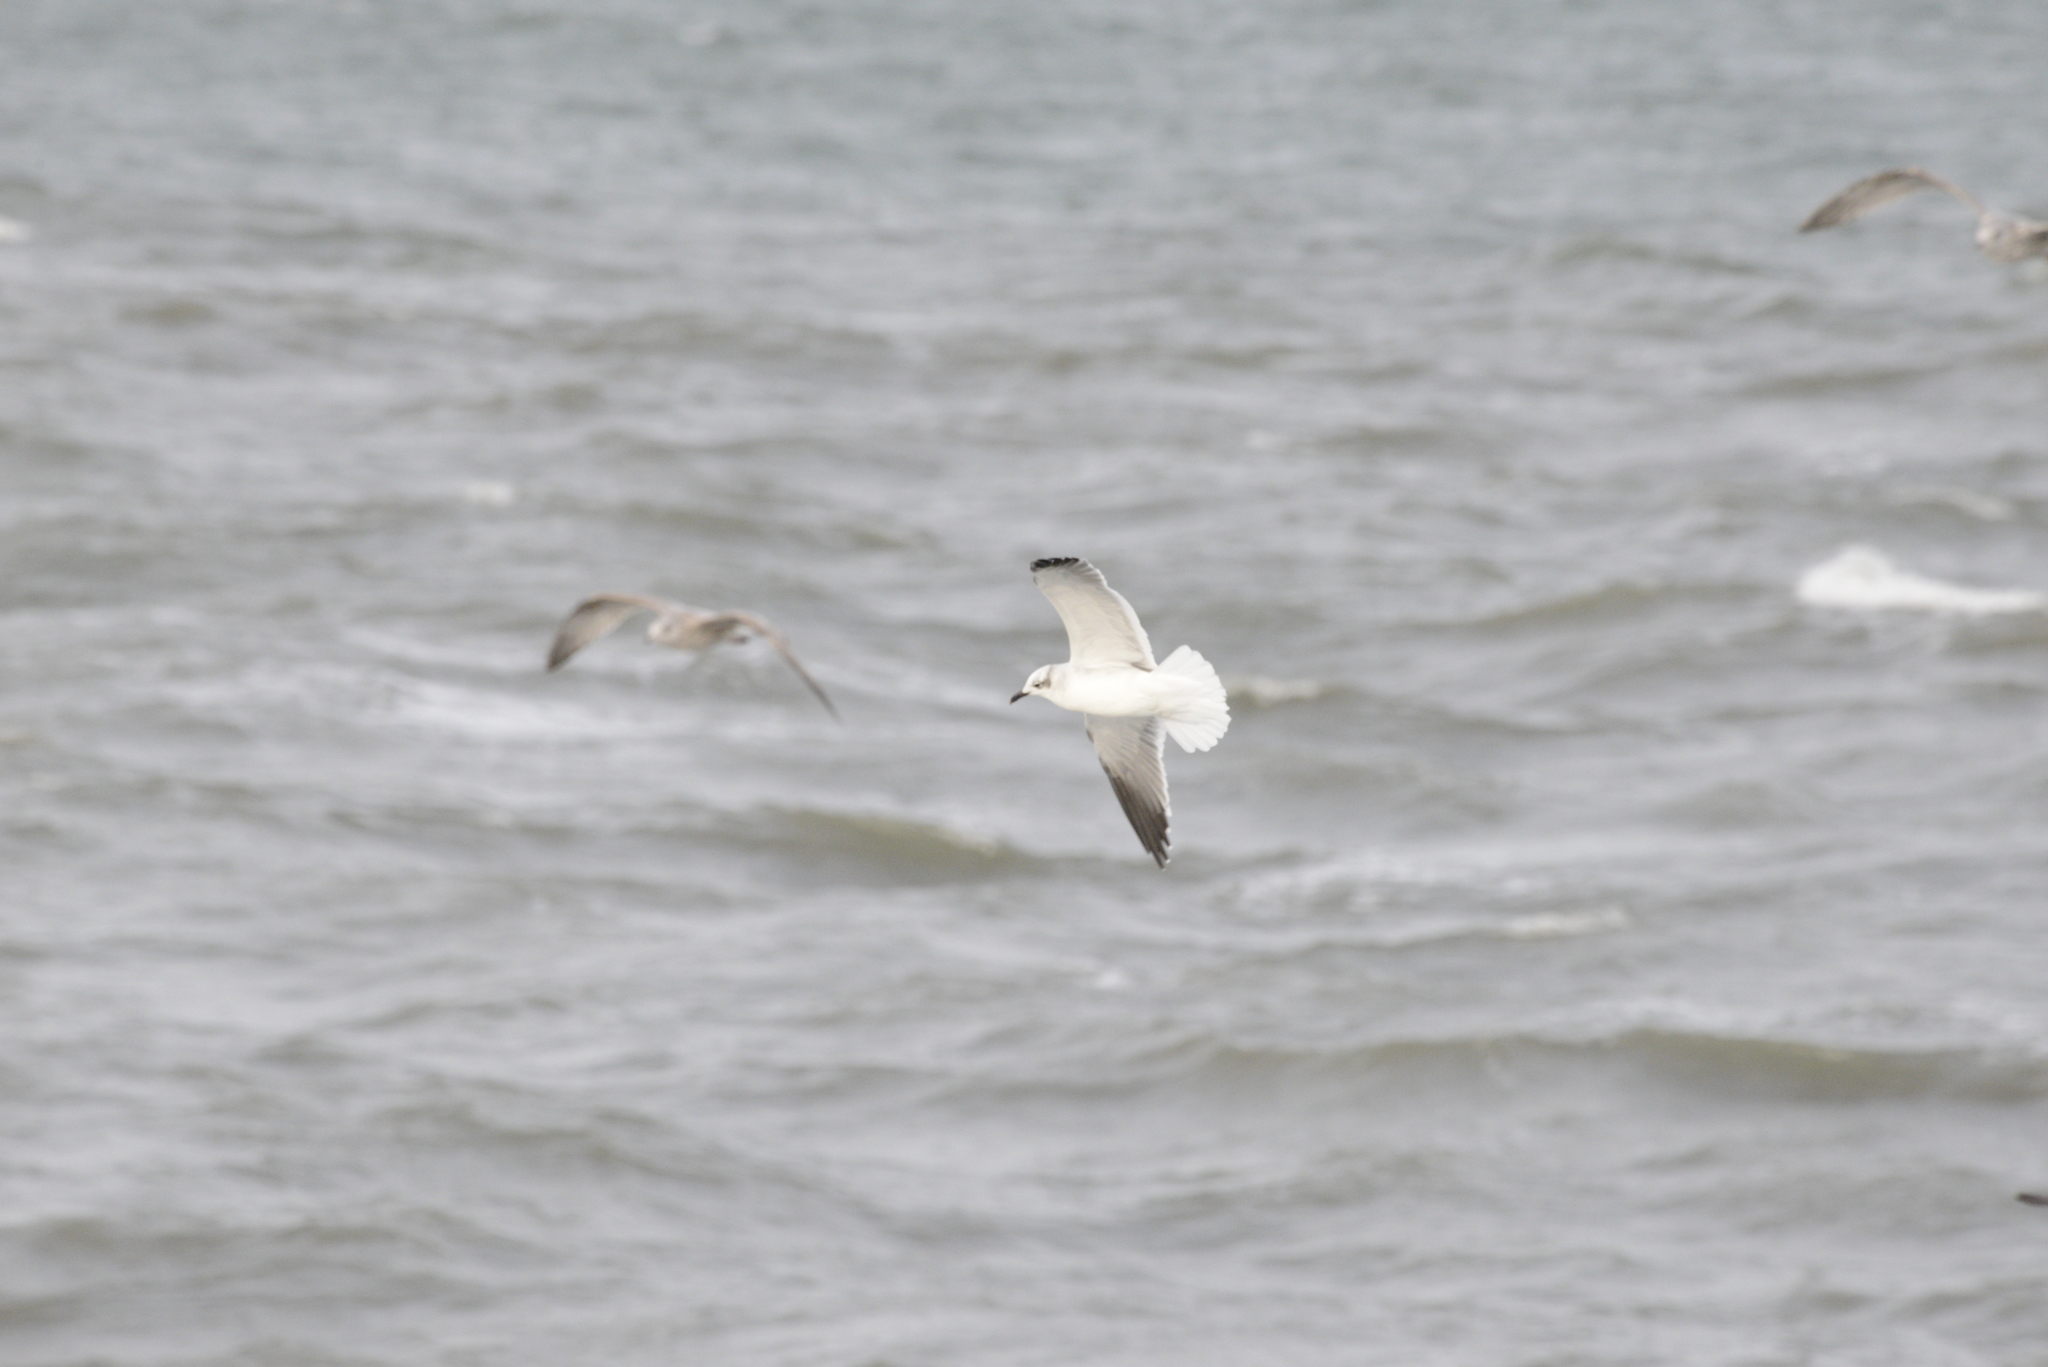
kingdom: Animalia
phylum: Chordata
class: Aves
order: Charadriiformes
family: Laridae
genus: Leucophaeus
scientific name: Leucophaeus atricilla
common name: Laughing gull
